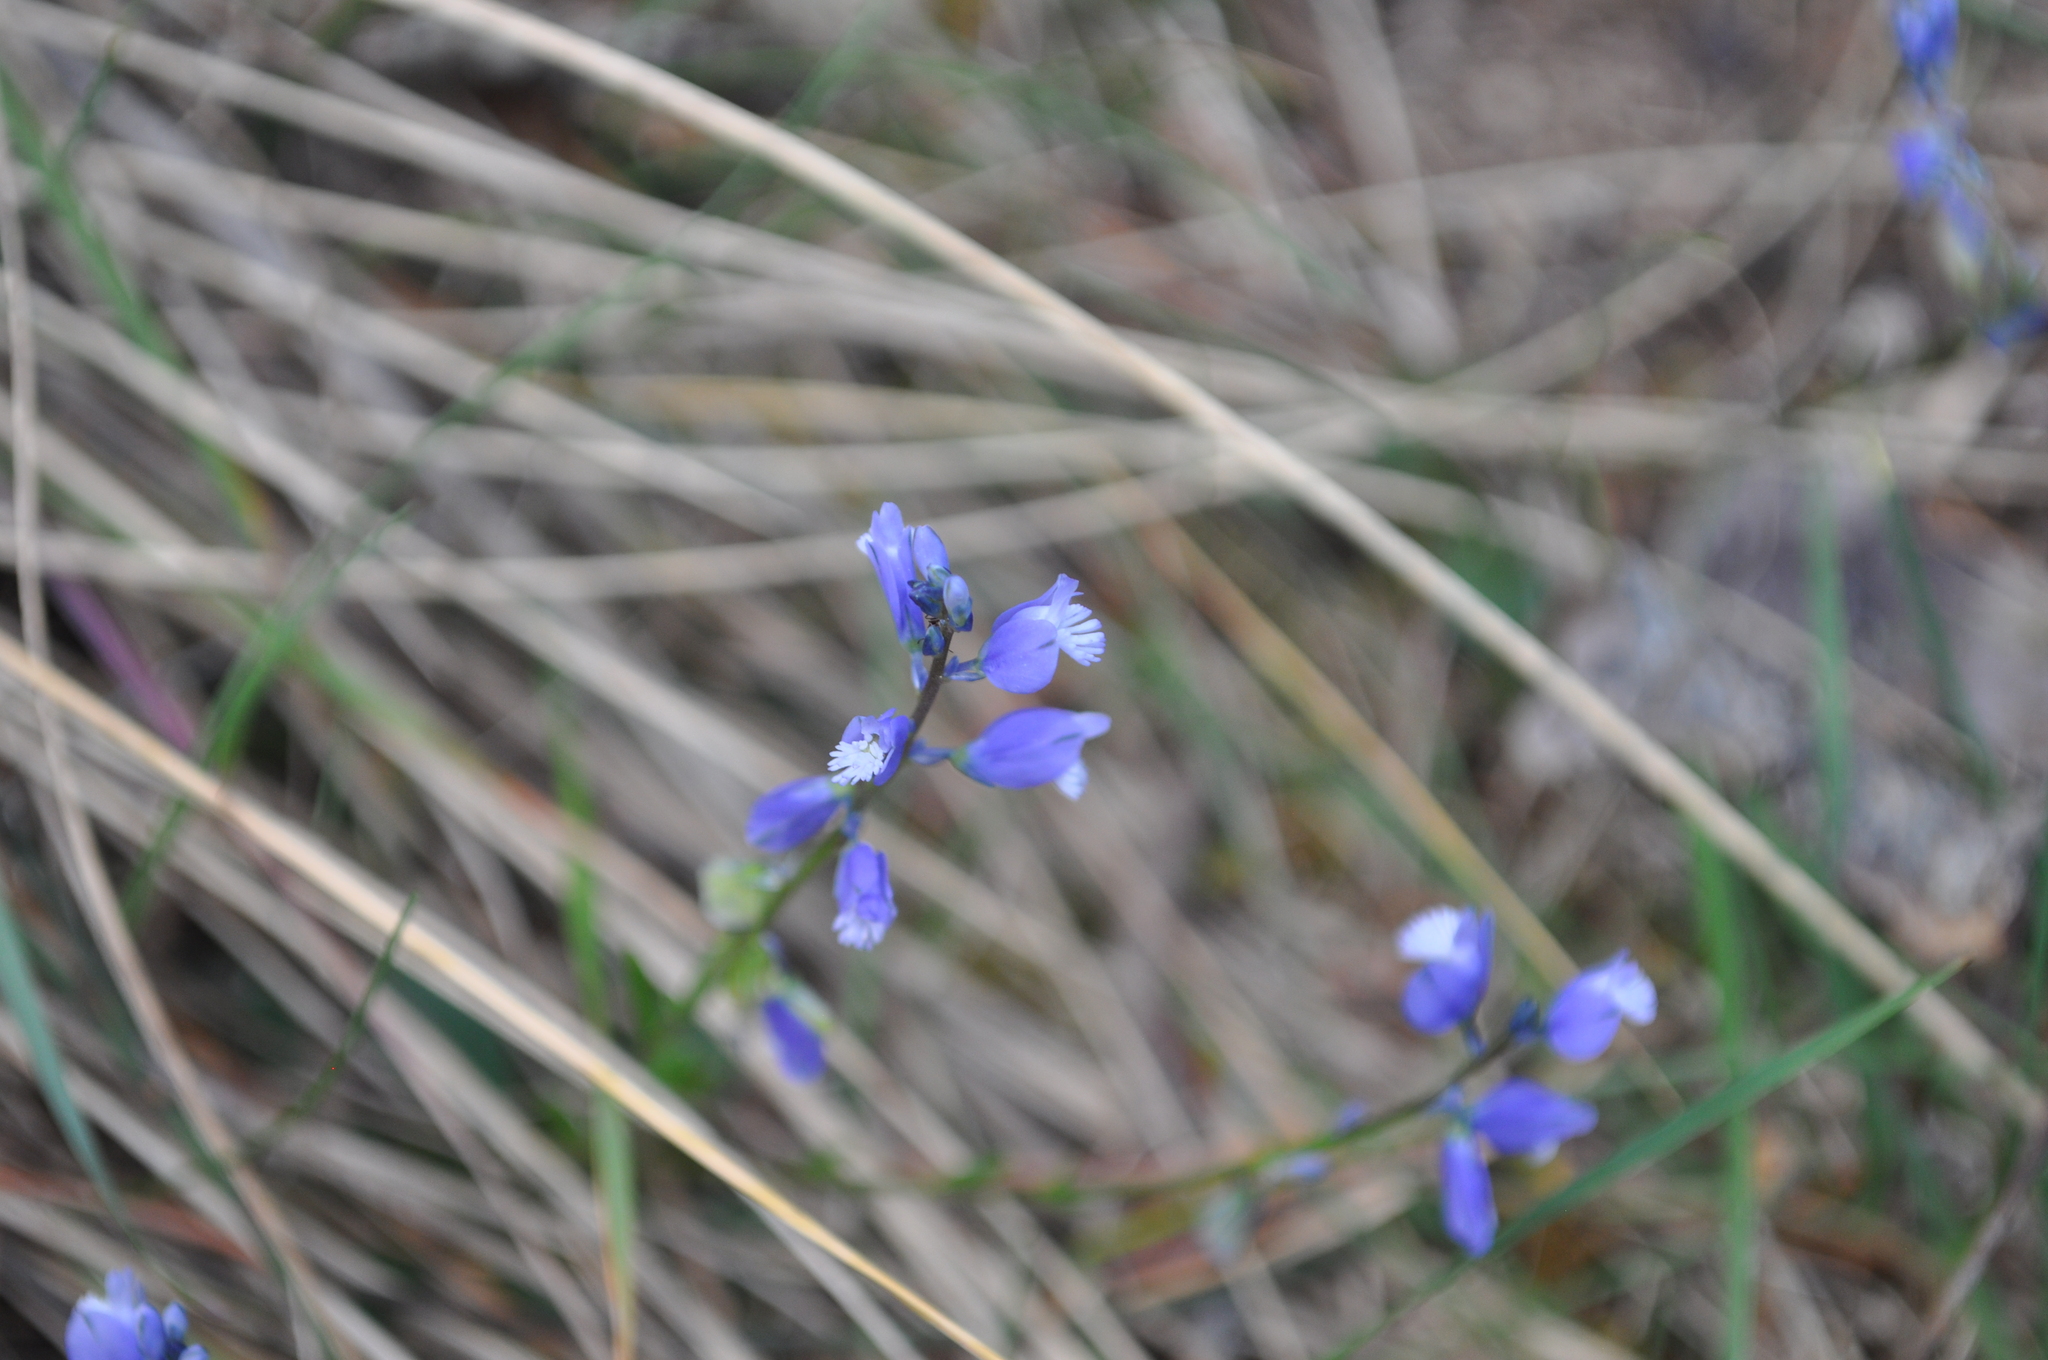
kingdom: Plantae
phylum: Tracheophyta
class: Magnoliopsida
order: Fabales
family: Polygalaceae
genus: Polygala
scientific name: Polygala calcarea
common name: Chalk milkwort
